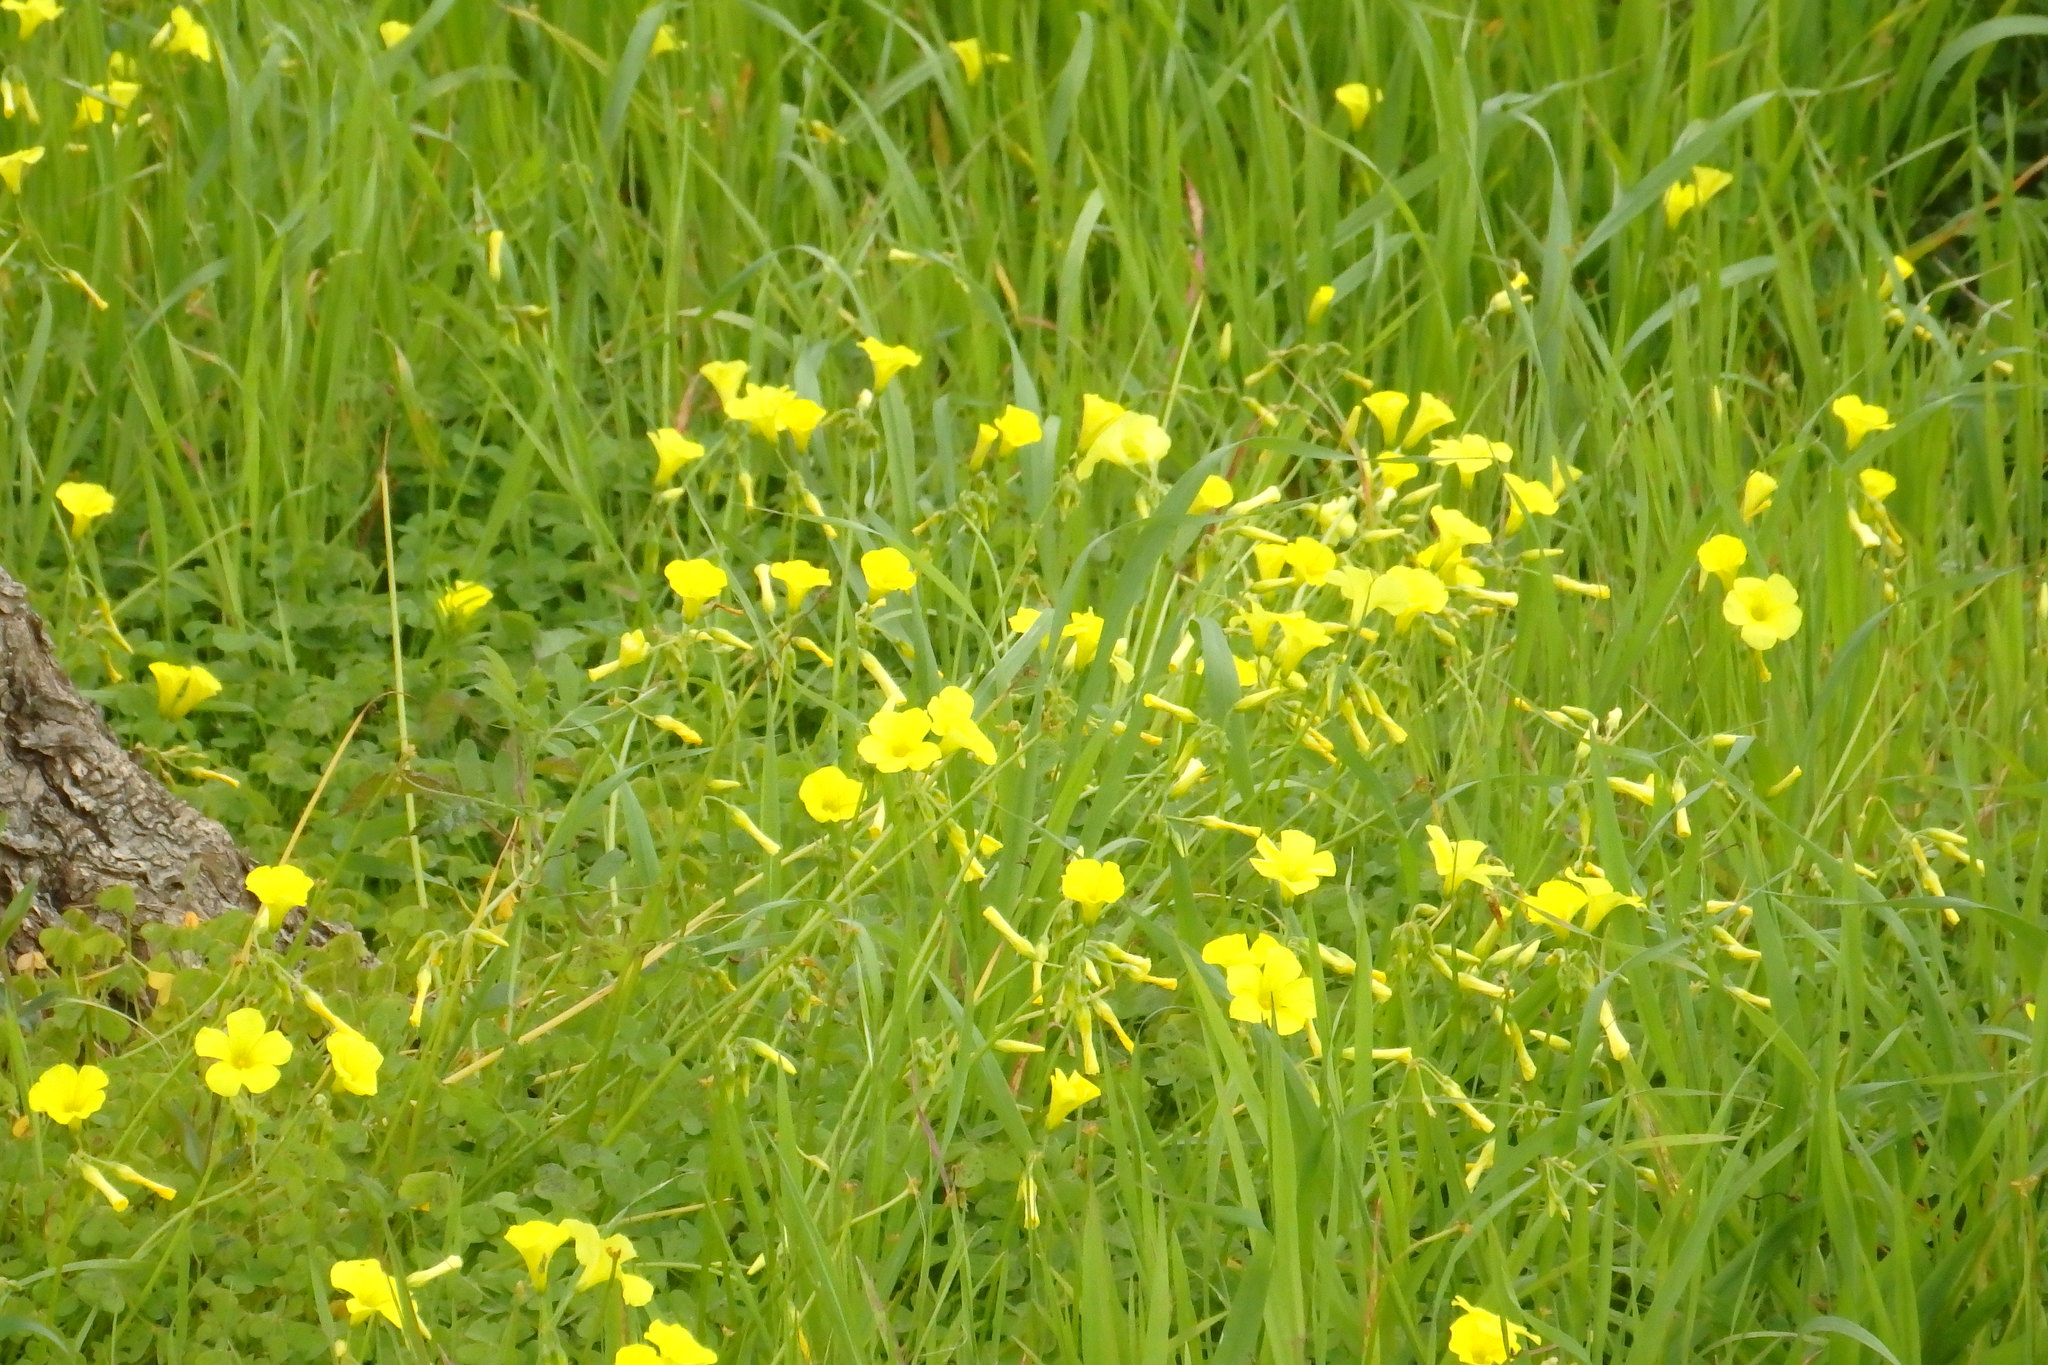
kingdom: Plantae
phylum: Tracheophyta
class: Magnoliopsida
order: Oxalidales
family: Oxalidaceae
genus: Oxalis
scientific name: Oxalis pes-caprae
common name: Bermuda-buttercup
